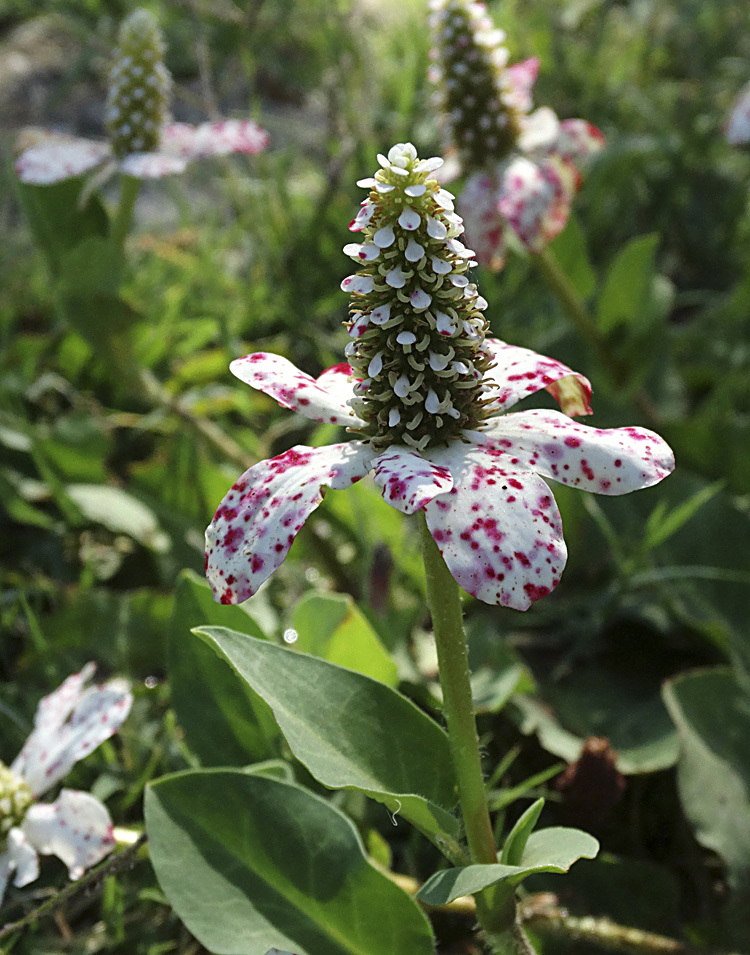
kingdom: Plantae
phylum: Tracheophyta
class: Magnoliopsida
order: Piperales
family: Saururaceae
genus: Anemopsis
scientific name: Anemopsis californica
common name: Apache-beads
